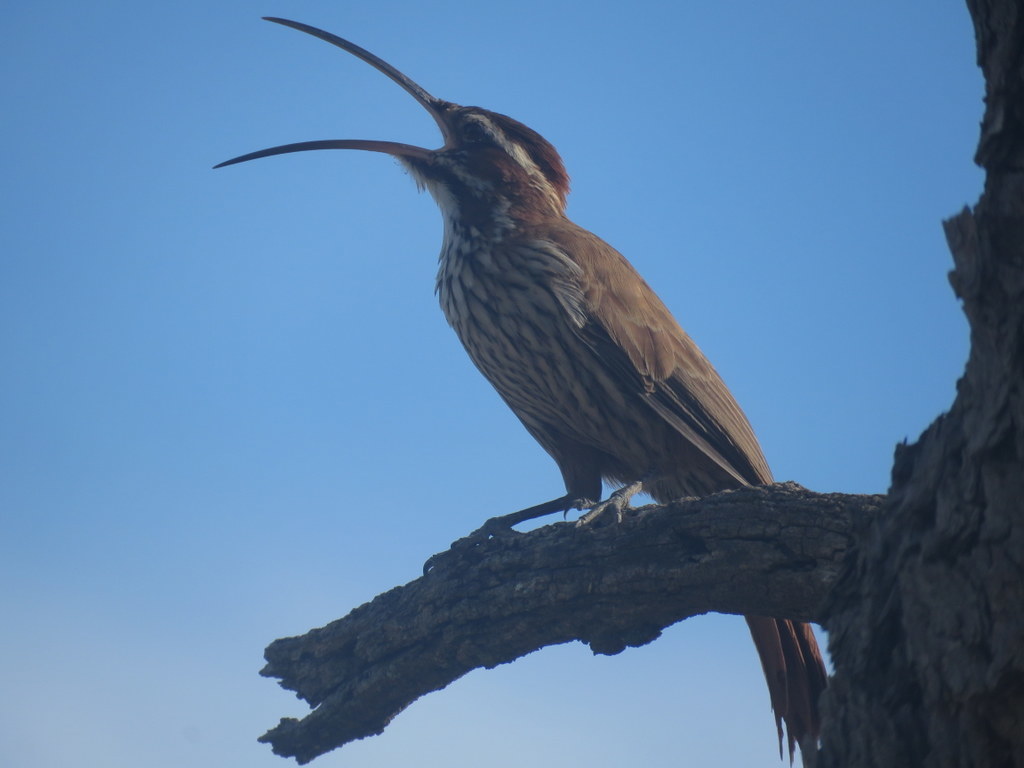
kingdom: Animalia
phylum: Chordata
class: Aves
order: Passeriformes
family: Furnariidae
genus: Drymornis
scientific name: Drymornis bridgesii
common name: Scimitar-billed woodcreeper
